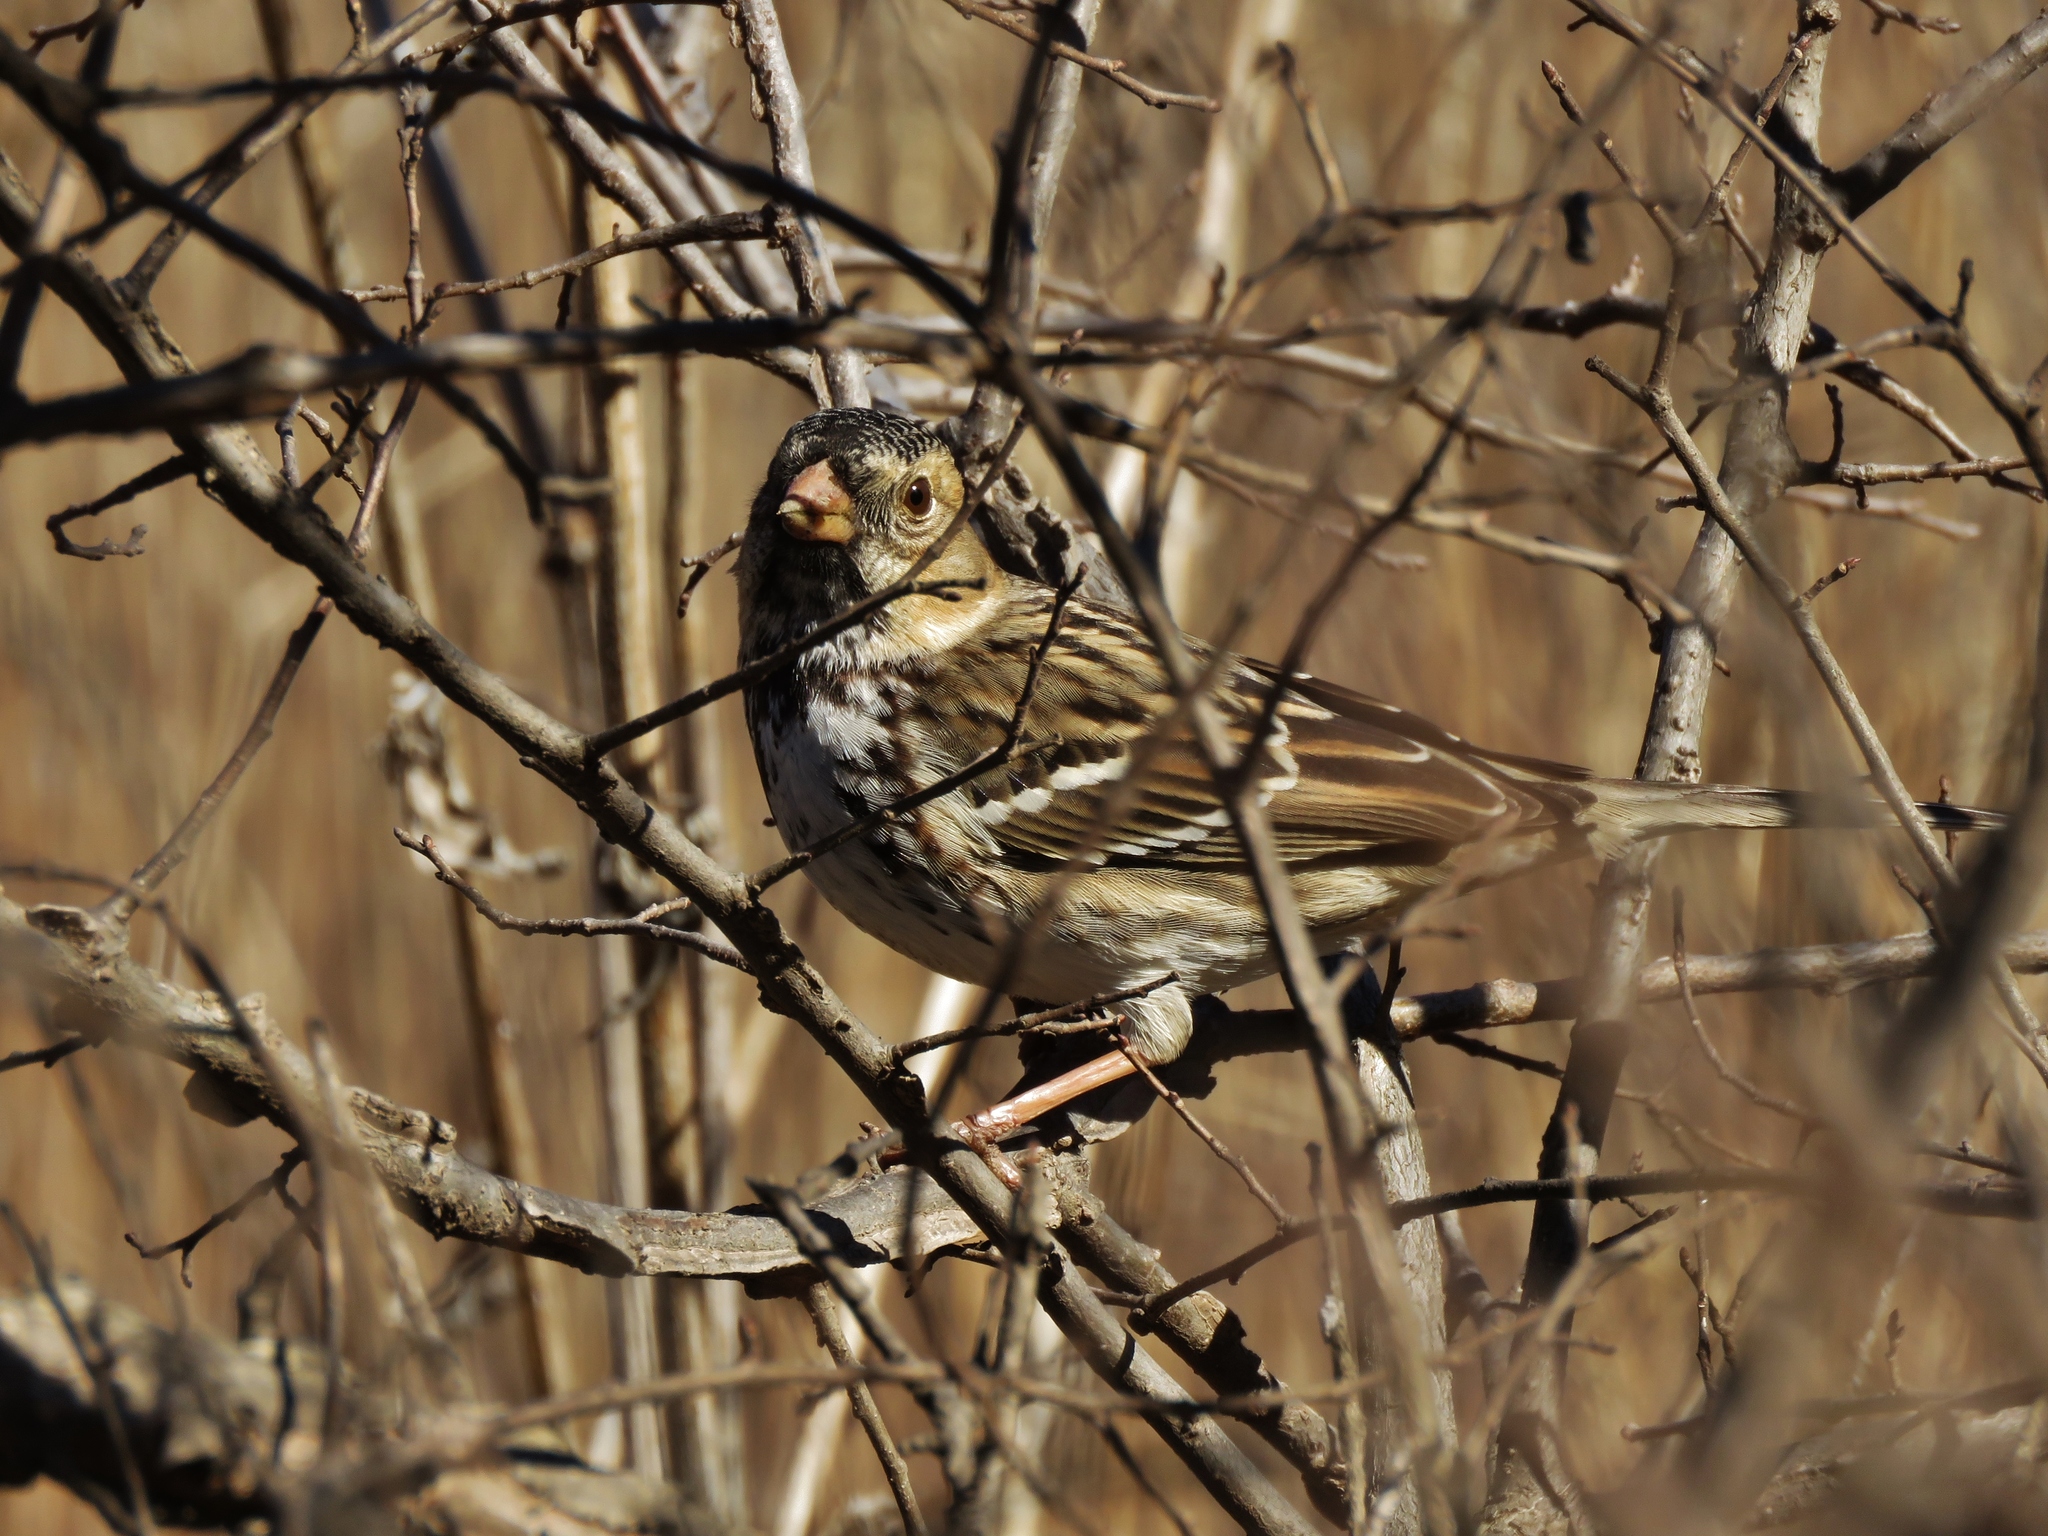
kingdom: Animalia
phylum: Chordata
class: Aves
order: Passeriformes
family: Passerellidae
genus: Zonotrichia
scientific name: Zonotrichia querula
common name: Harris's sparrow
